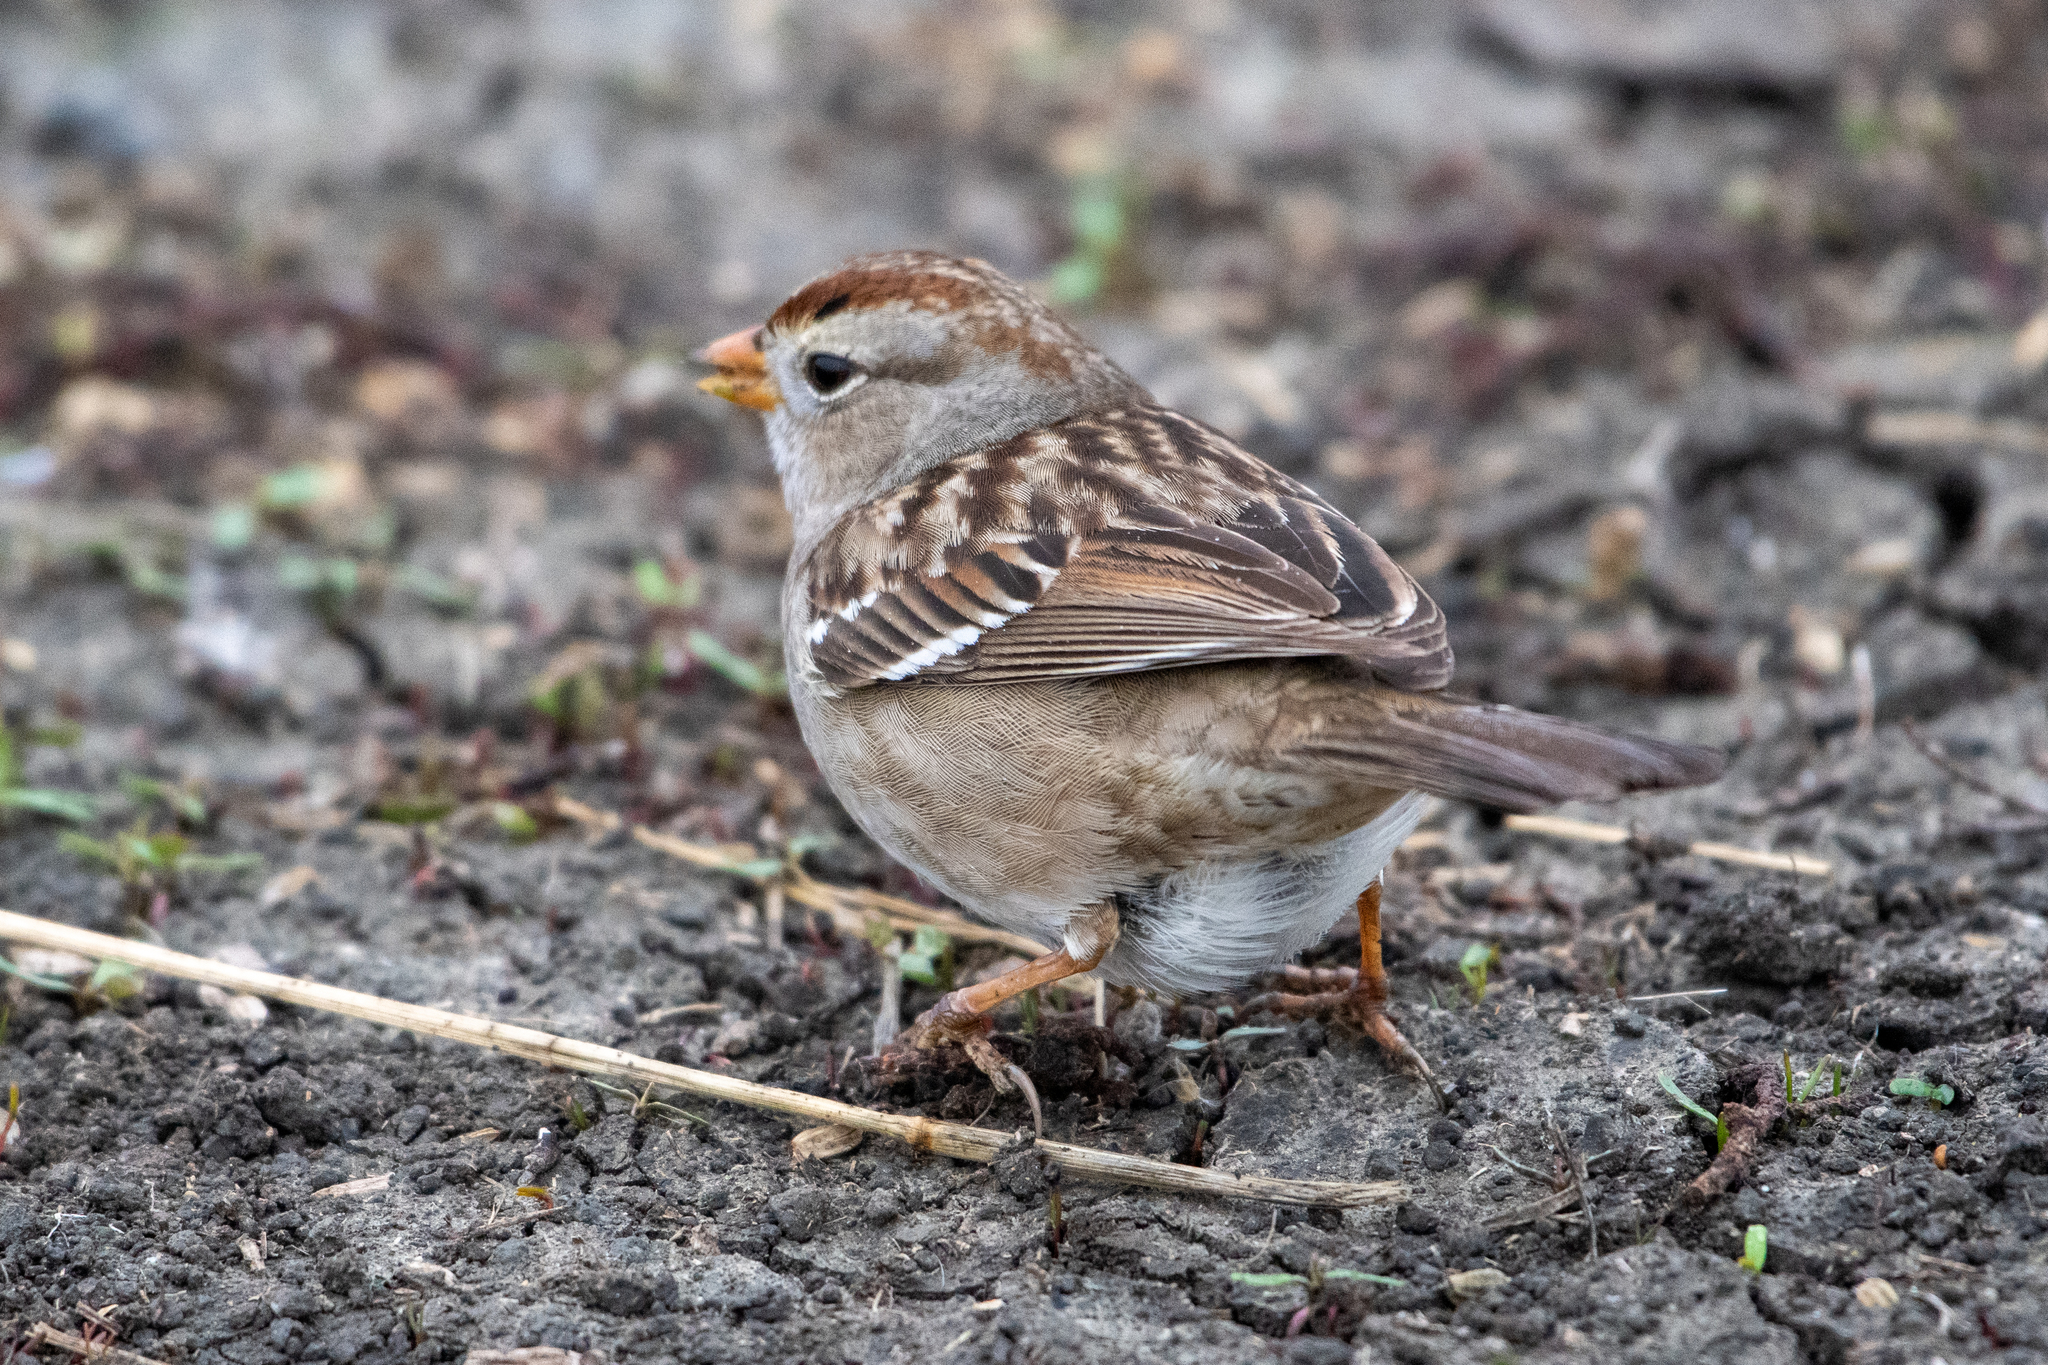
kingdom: Animalia
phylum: Chordata
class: Aves
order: Passeriformes
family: Passerellidae
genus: Zonotrichia
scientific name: Zonotrichia leucophrys
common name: White-crowned sparrow
